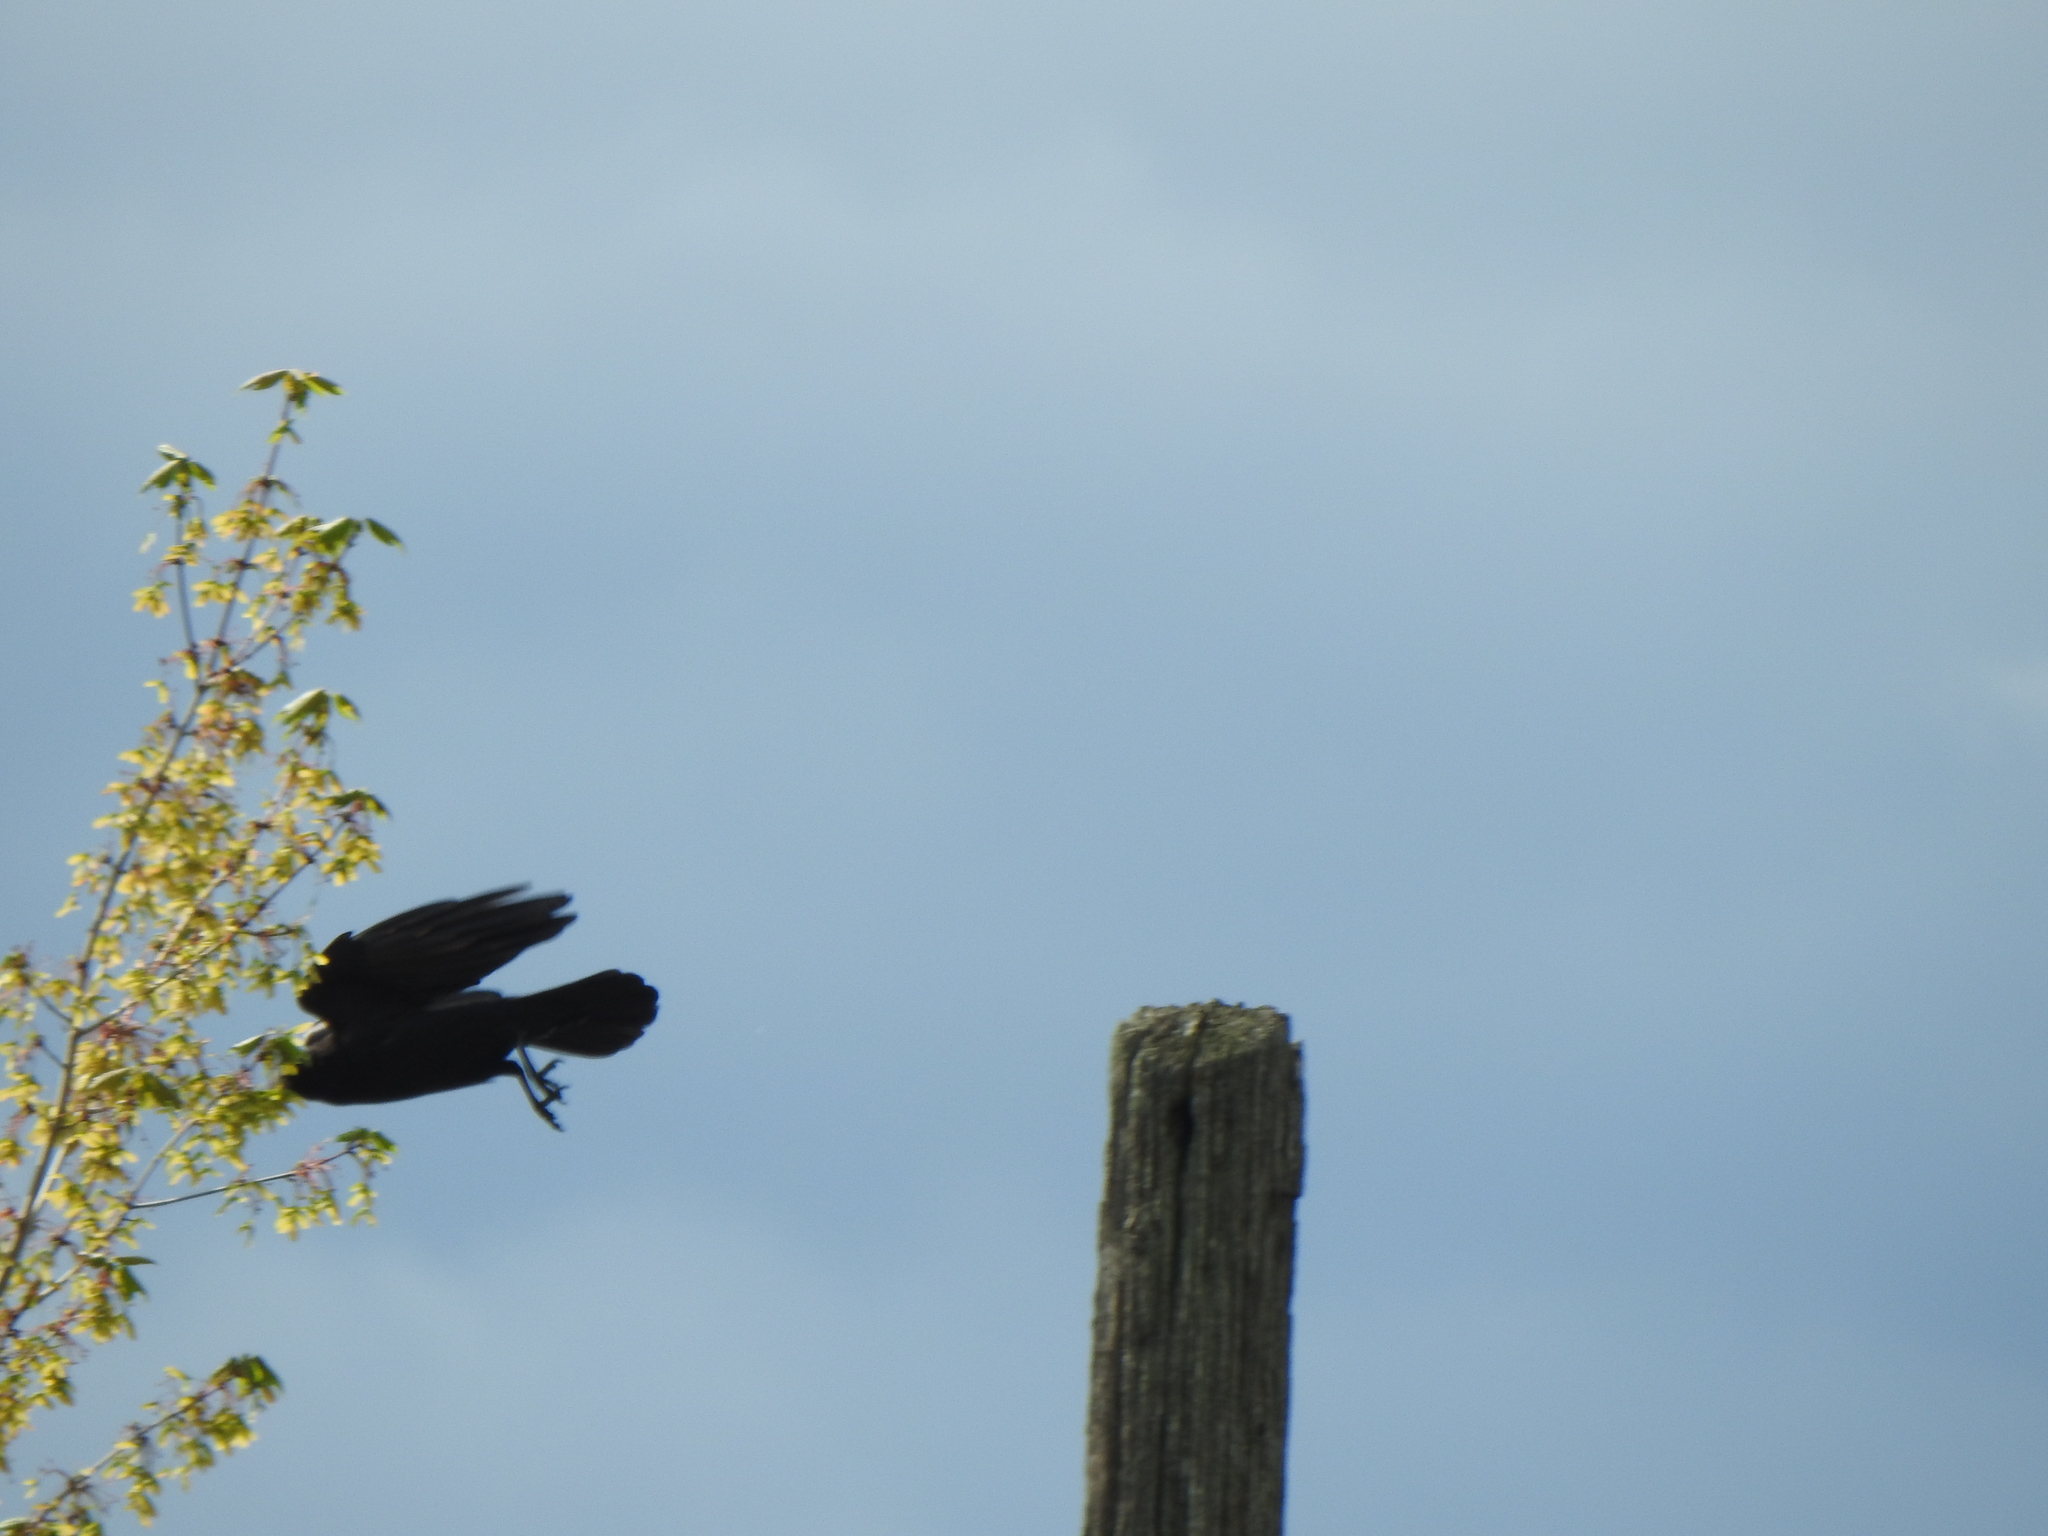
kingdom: Animalia
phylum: Chordata
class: Aves
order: Passeriformes
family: Corvidae
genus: Corvus
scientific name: Corvus brachyrhynchos
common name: American crow
